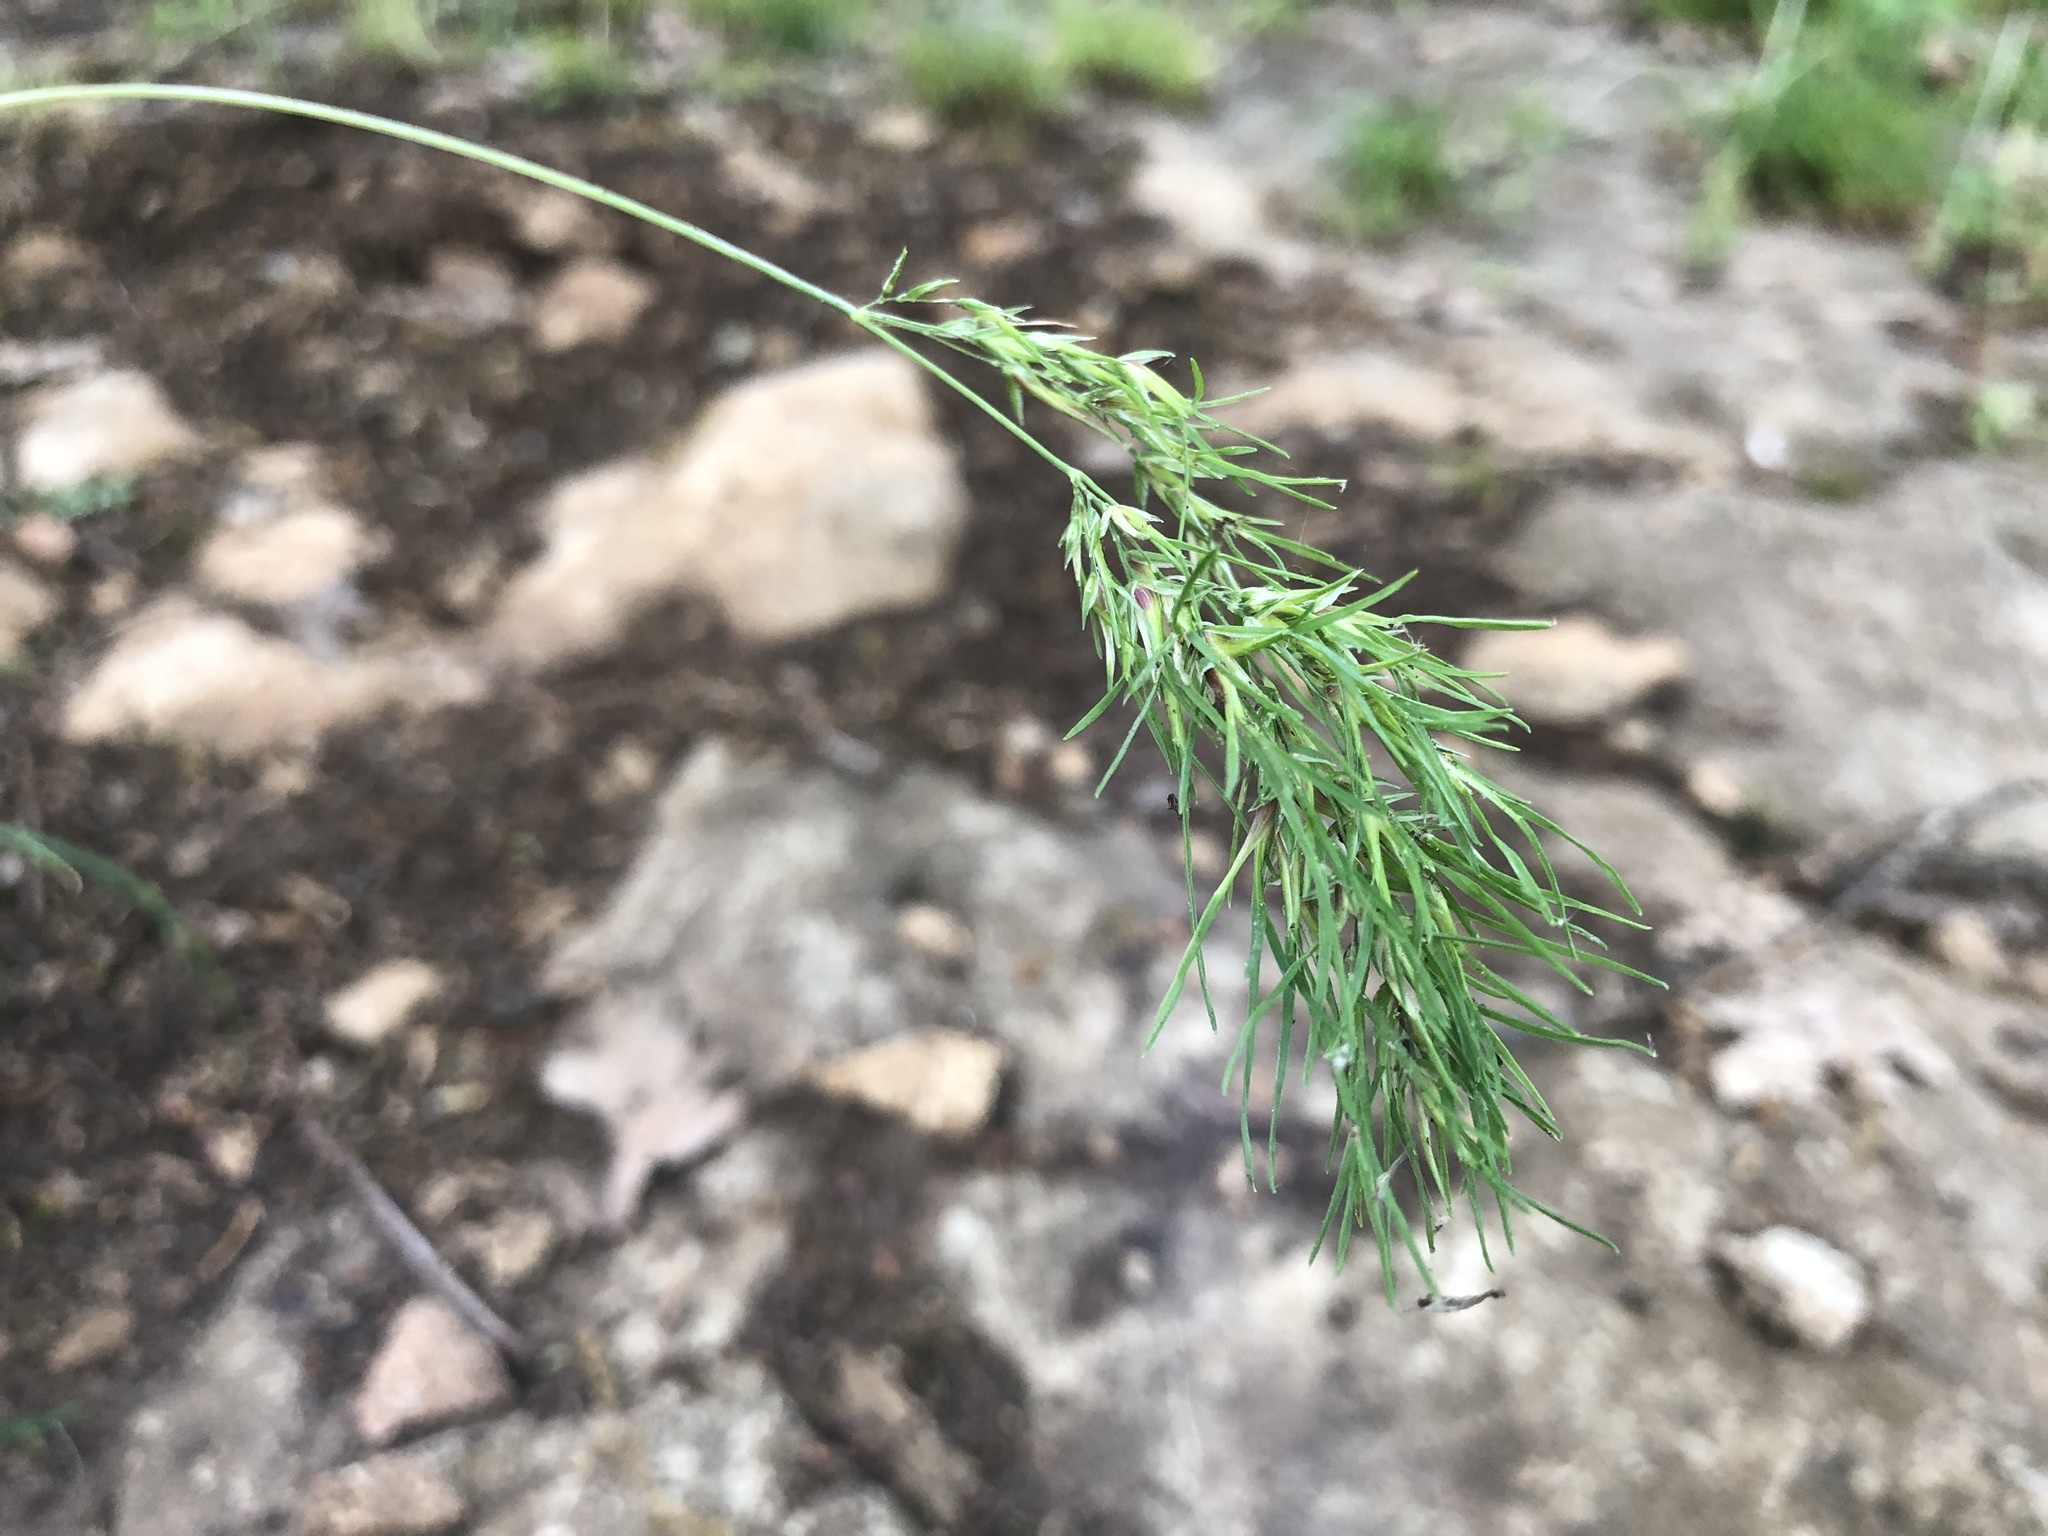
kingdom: Plantae
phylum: Tracheophyta
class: Liliopsida
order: Poales
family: Poaceae
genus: Poa
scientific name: Poa bulbosa
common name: Bulbous bluegrass
